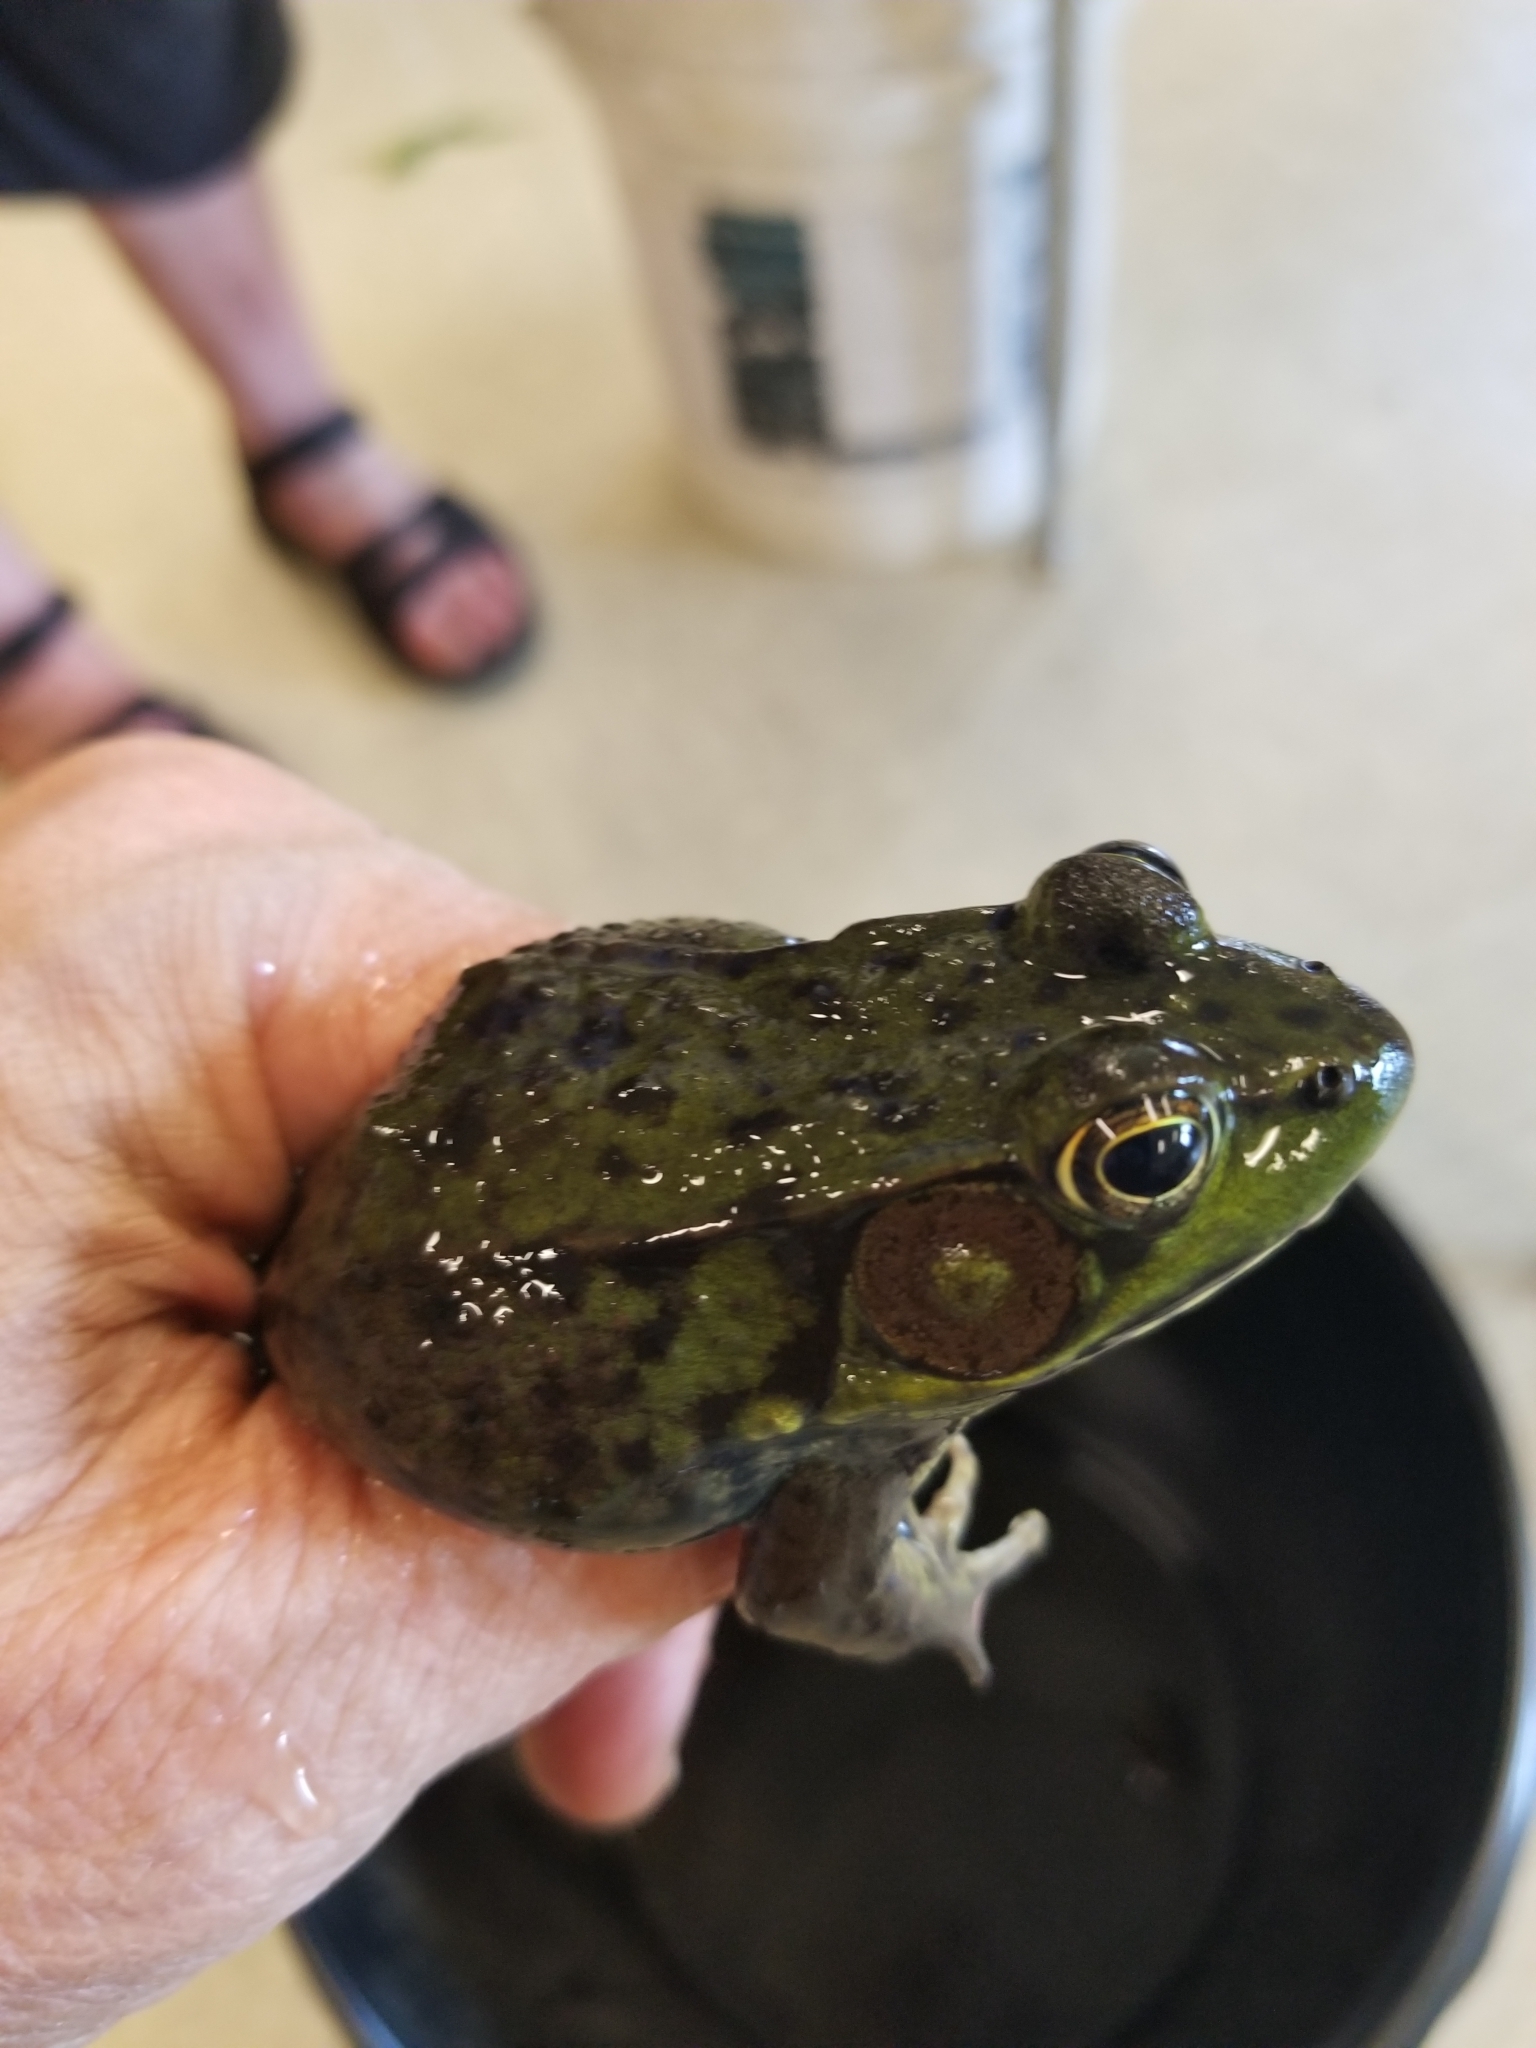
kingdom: Animalia
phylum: Chordata
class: Amphibia
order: Anura
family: Ranidae
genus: Lithobates
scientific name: Lithobates clamitans
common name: Green frog
